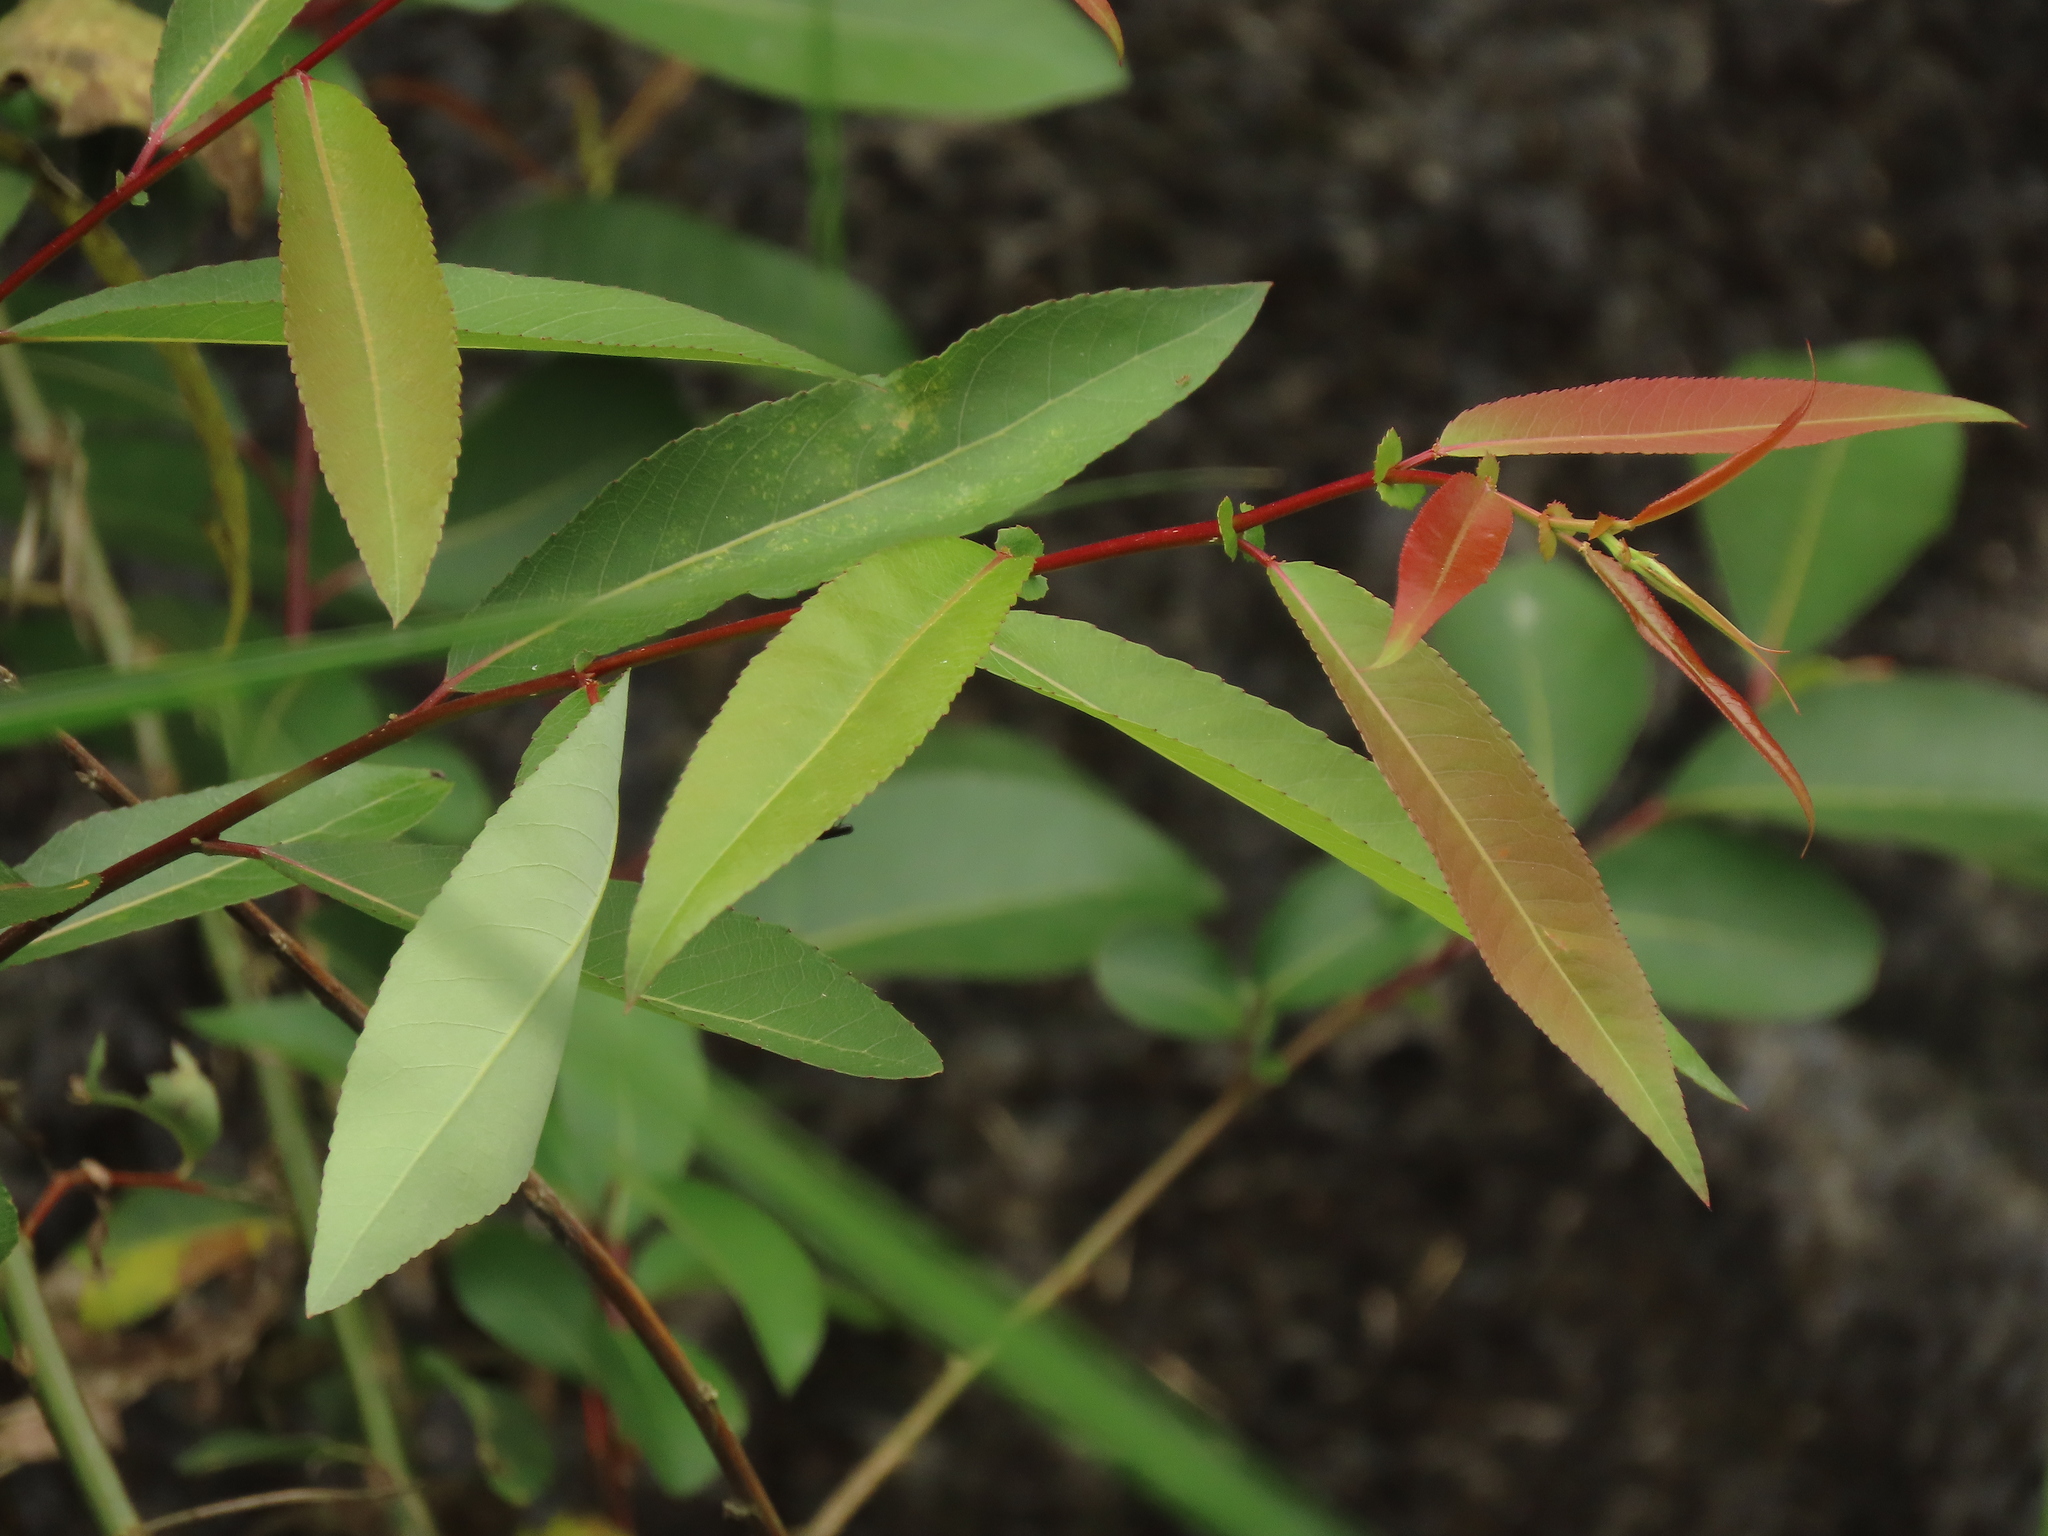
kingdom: Plantae
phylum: Tracheophyta
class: Magnoliopsida
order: Malpighiales
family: Salicaceae
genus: Salix
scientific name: Salix mesnyi
